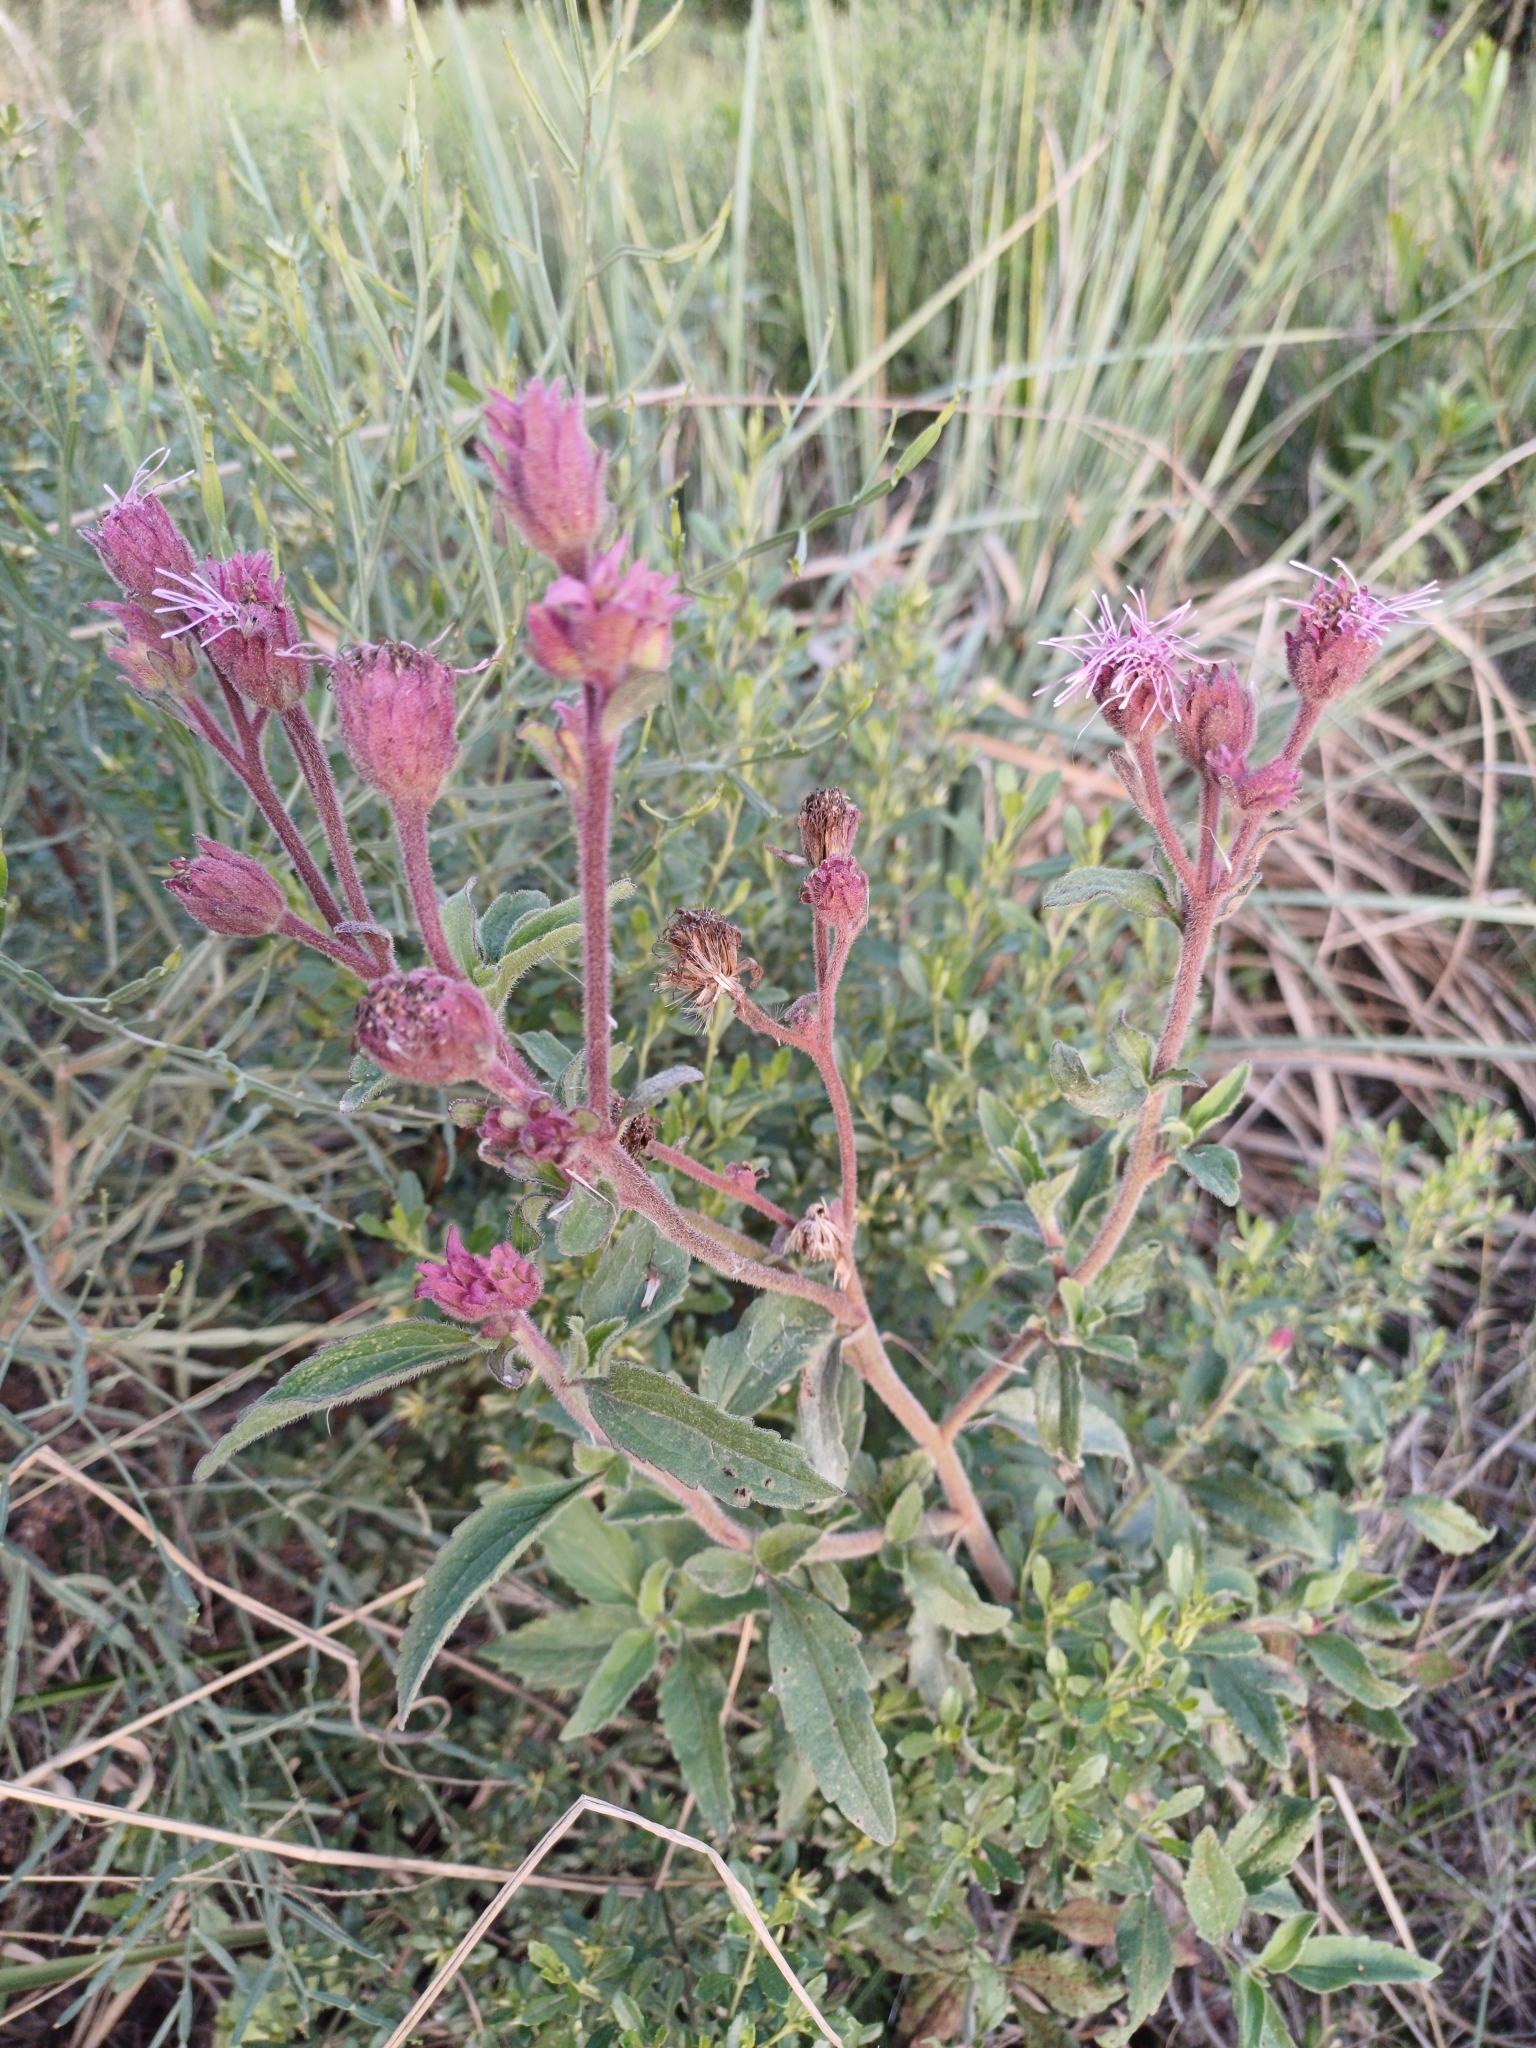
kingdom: Plantae
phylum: Tracheophyta
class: Magnoliopsida
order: Asterales
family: Asteraceae
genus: Campuloclinium
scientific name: Campuloclinium macrocephalum
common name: Pompomweed
